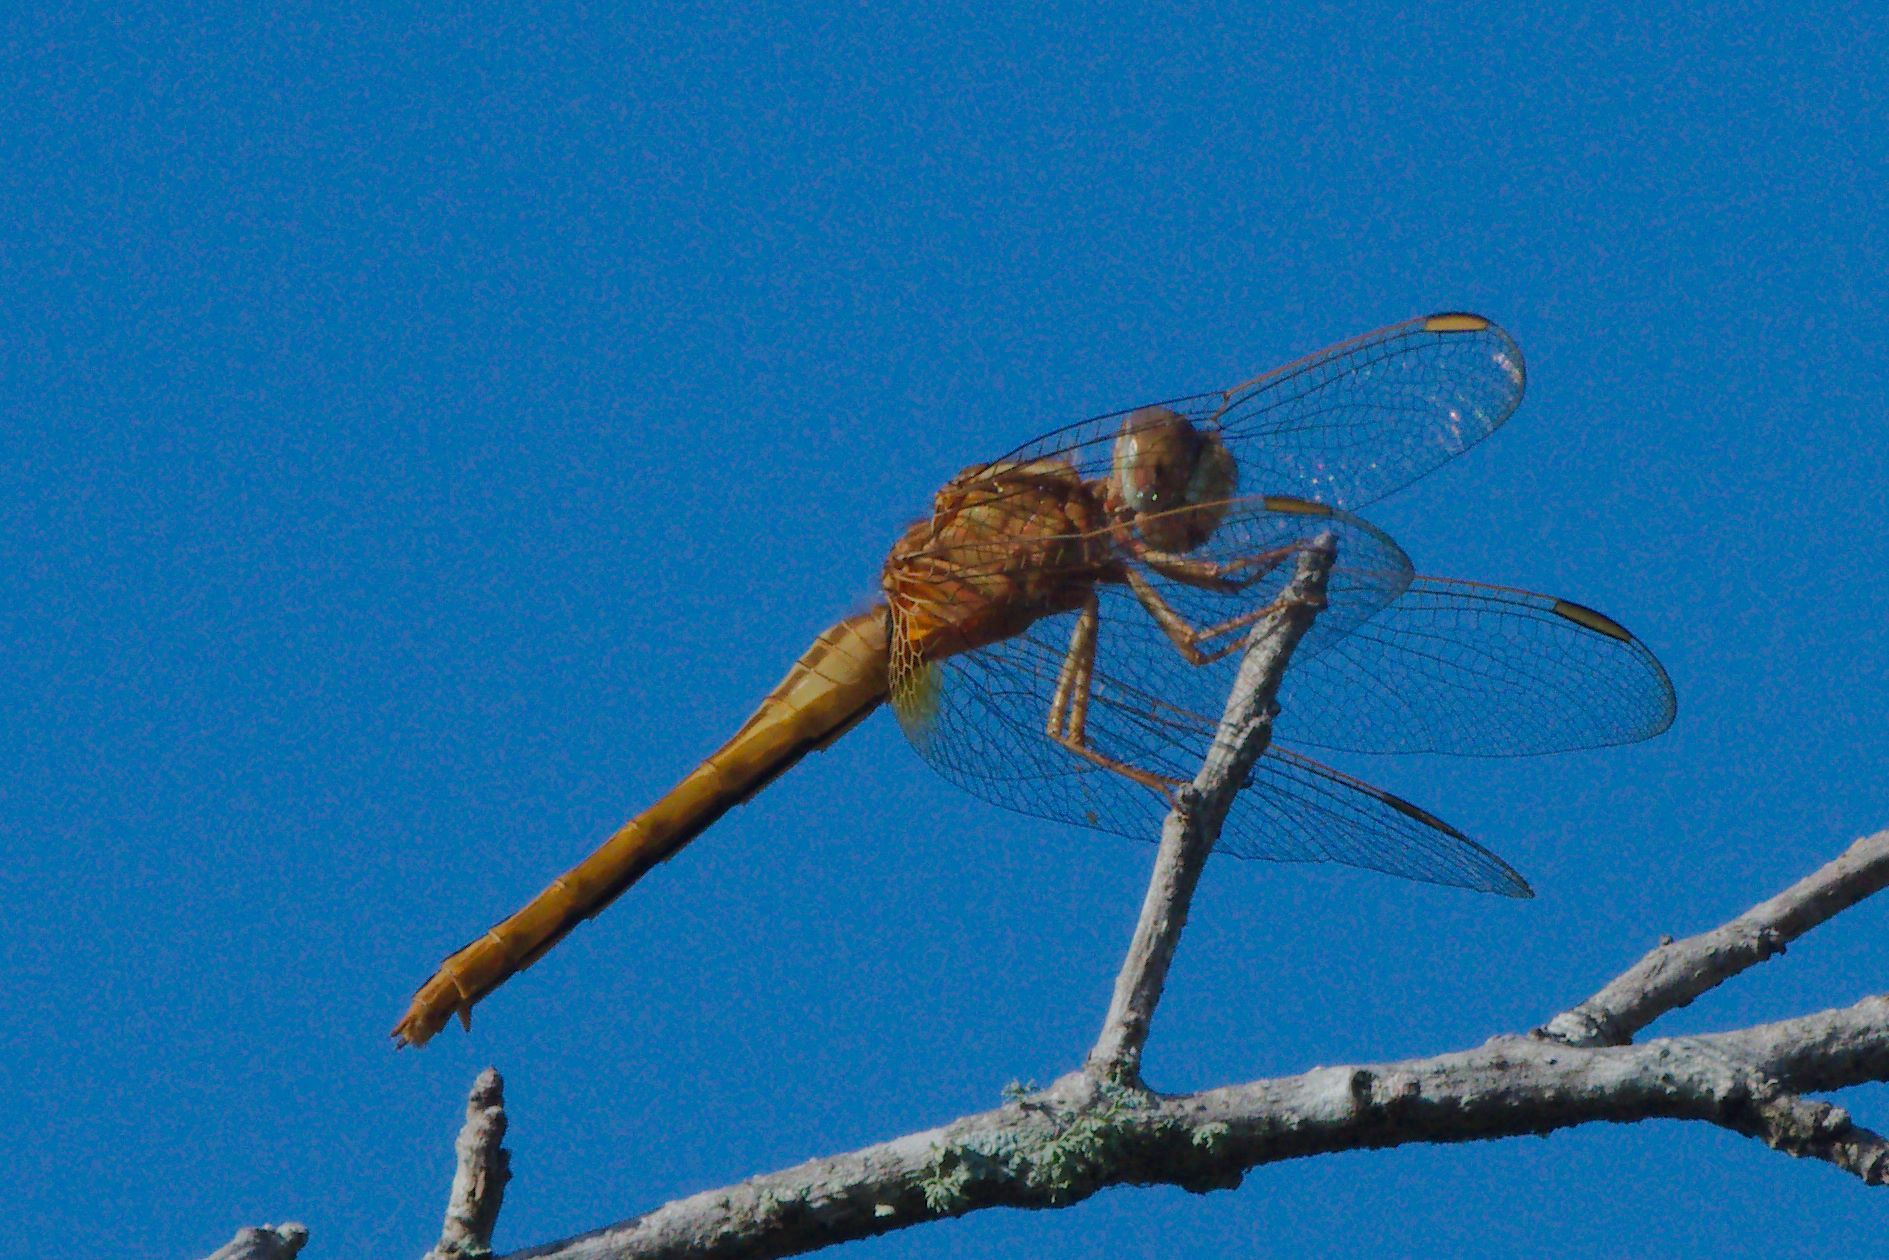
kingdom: Animalia
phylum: Arthropoda
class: Insecta
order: Odonata
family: Libellulidae
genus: Crocothemis
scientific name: Crocothemis servilia
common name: Scarlet skimmer
